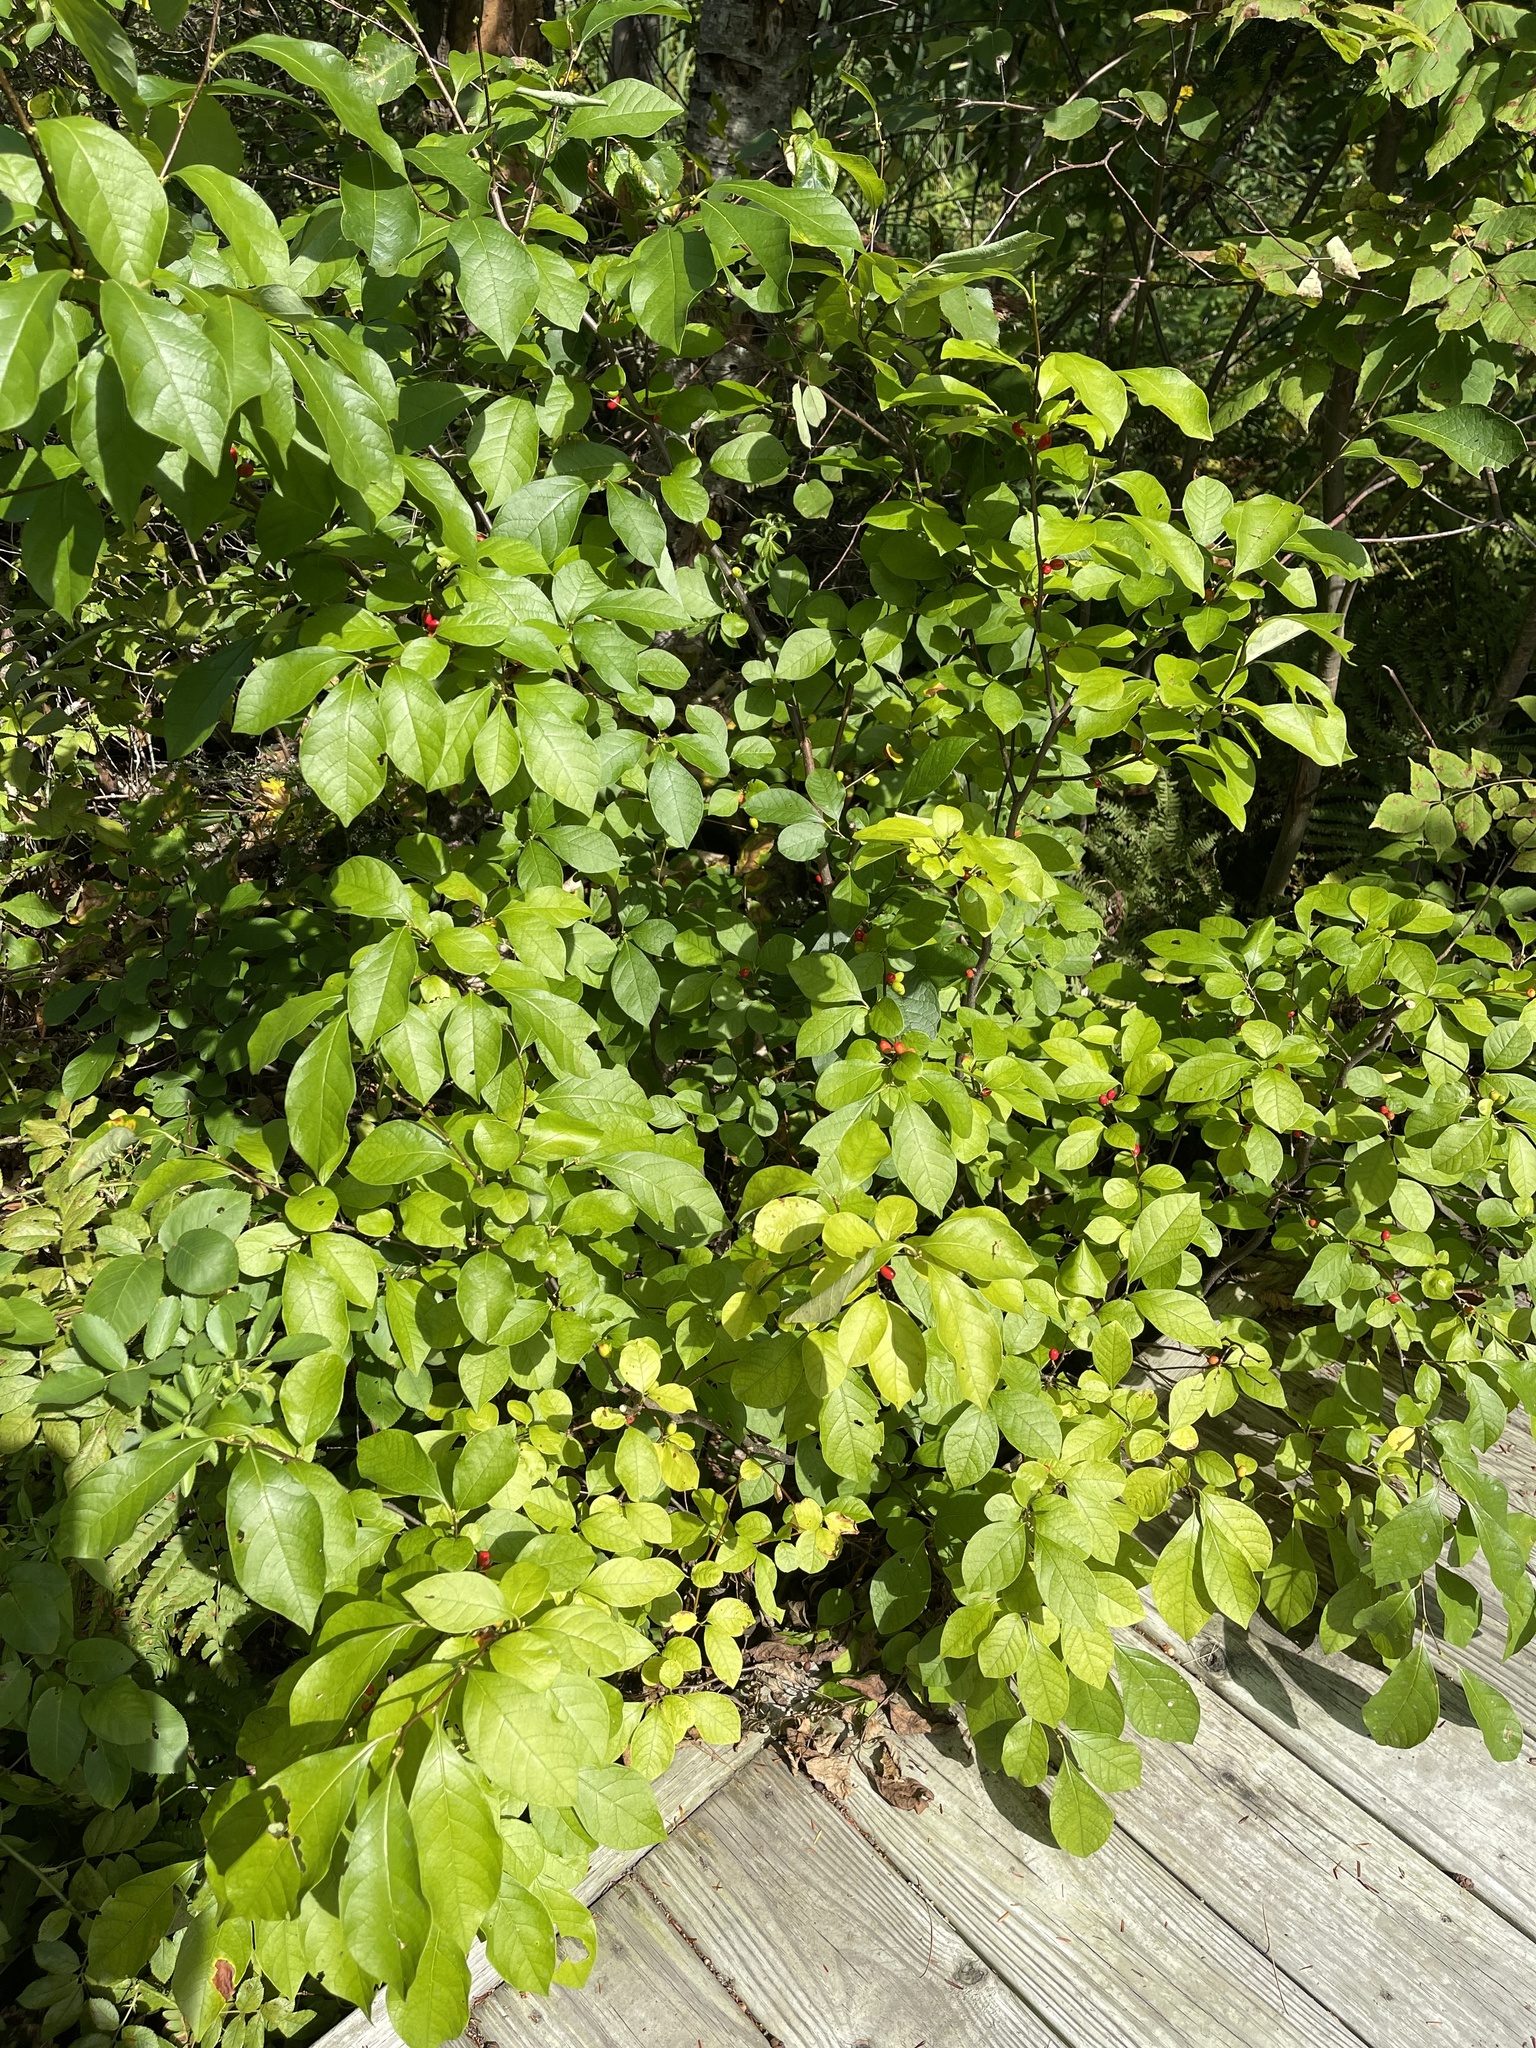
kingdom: Plantae
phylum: Tracheophyta
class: Magnoliopsida
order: Laurales
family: Lauraceae
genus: Lindera
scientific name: Lindera benzoin
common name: Spicebush
